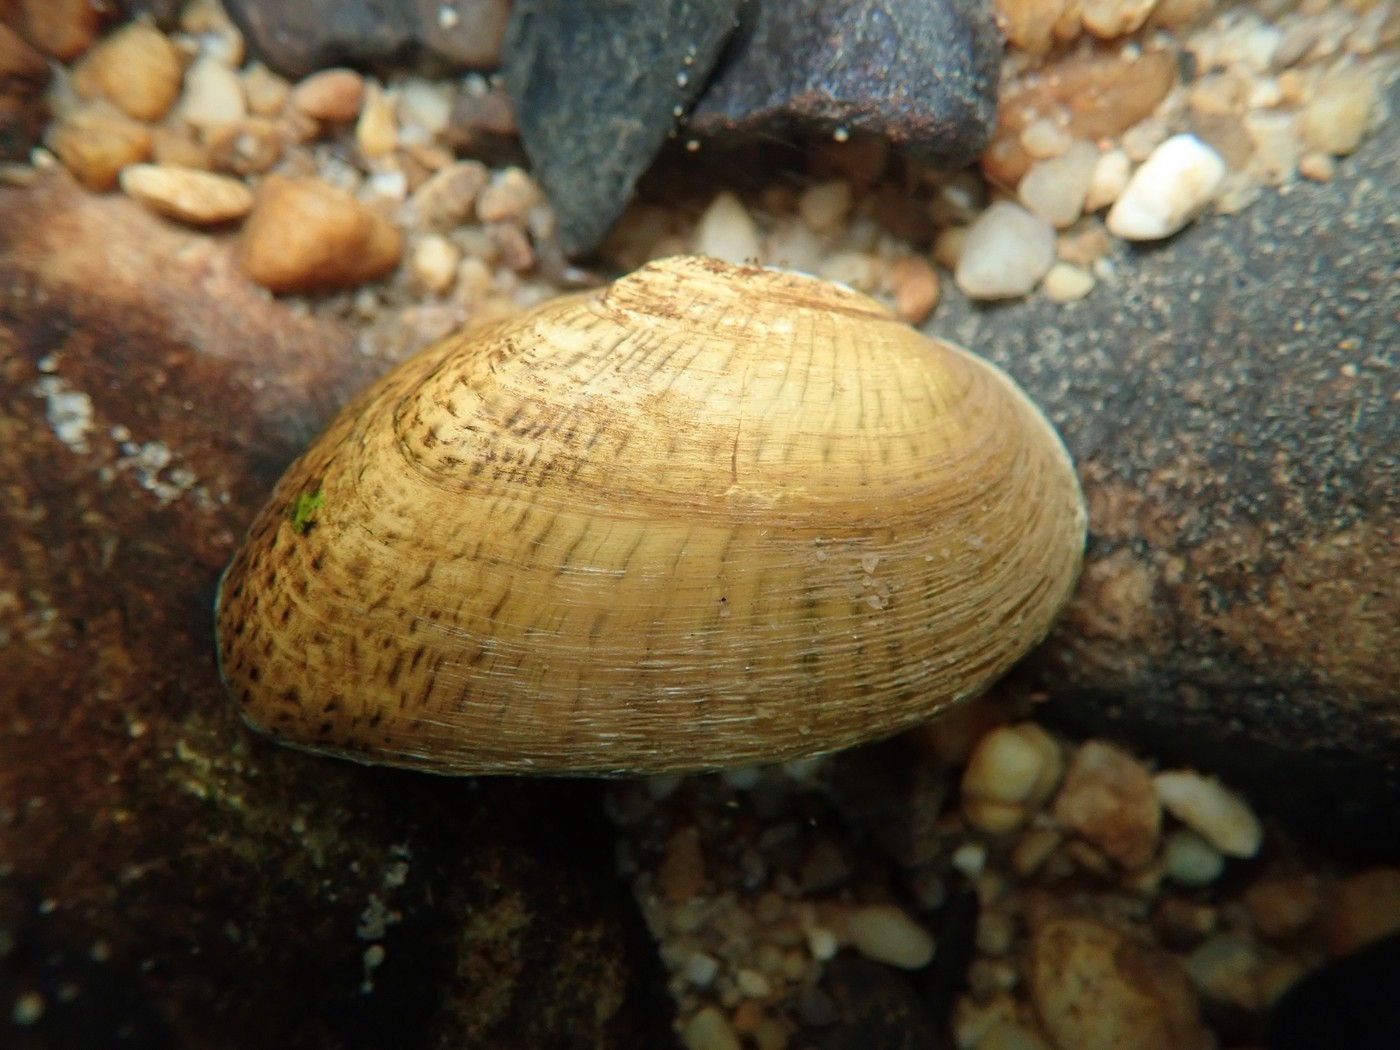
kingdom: Animalia
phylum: Mollusca
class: Bivalvia
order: Unionida
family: Unionidae
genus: Epioblasma
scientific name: Epioblasma brevidens
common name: Cumberlandian combshell
